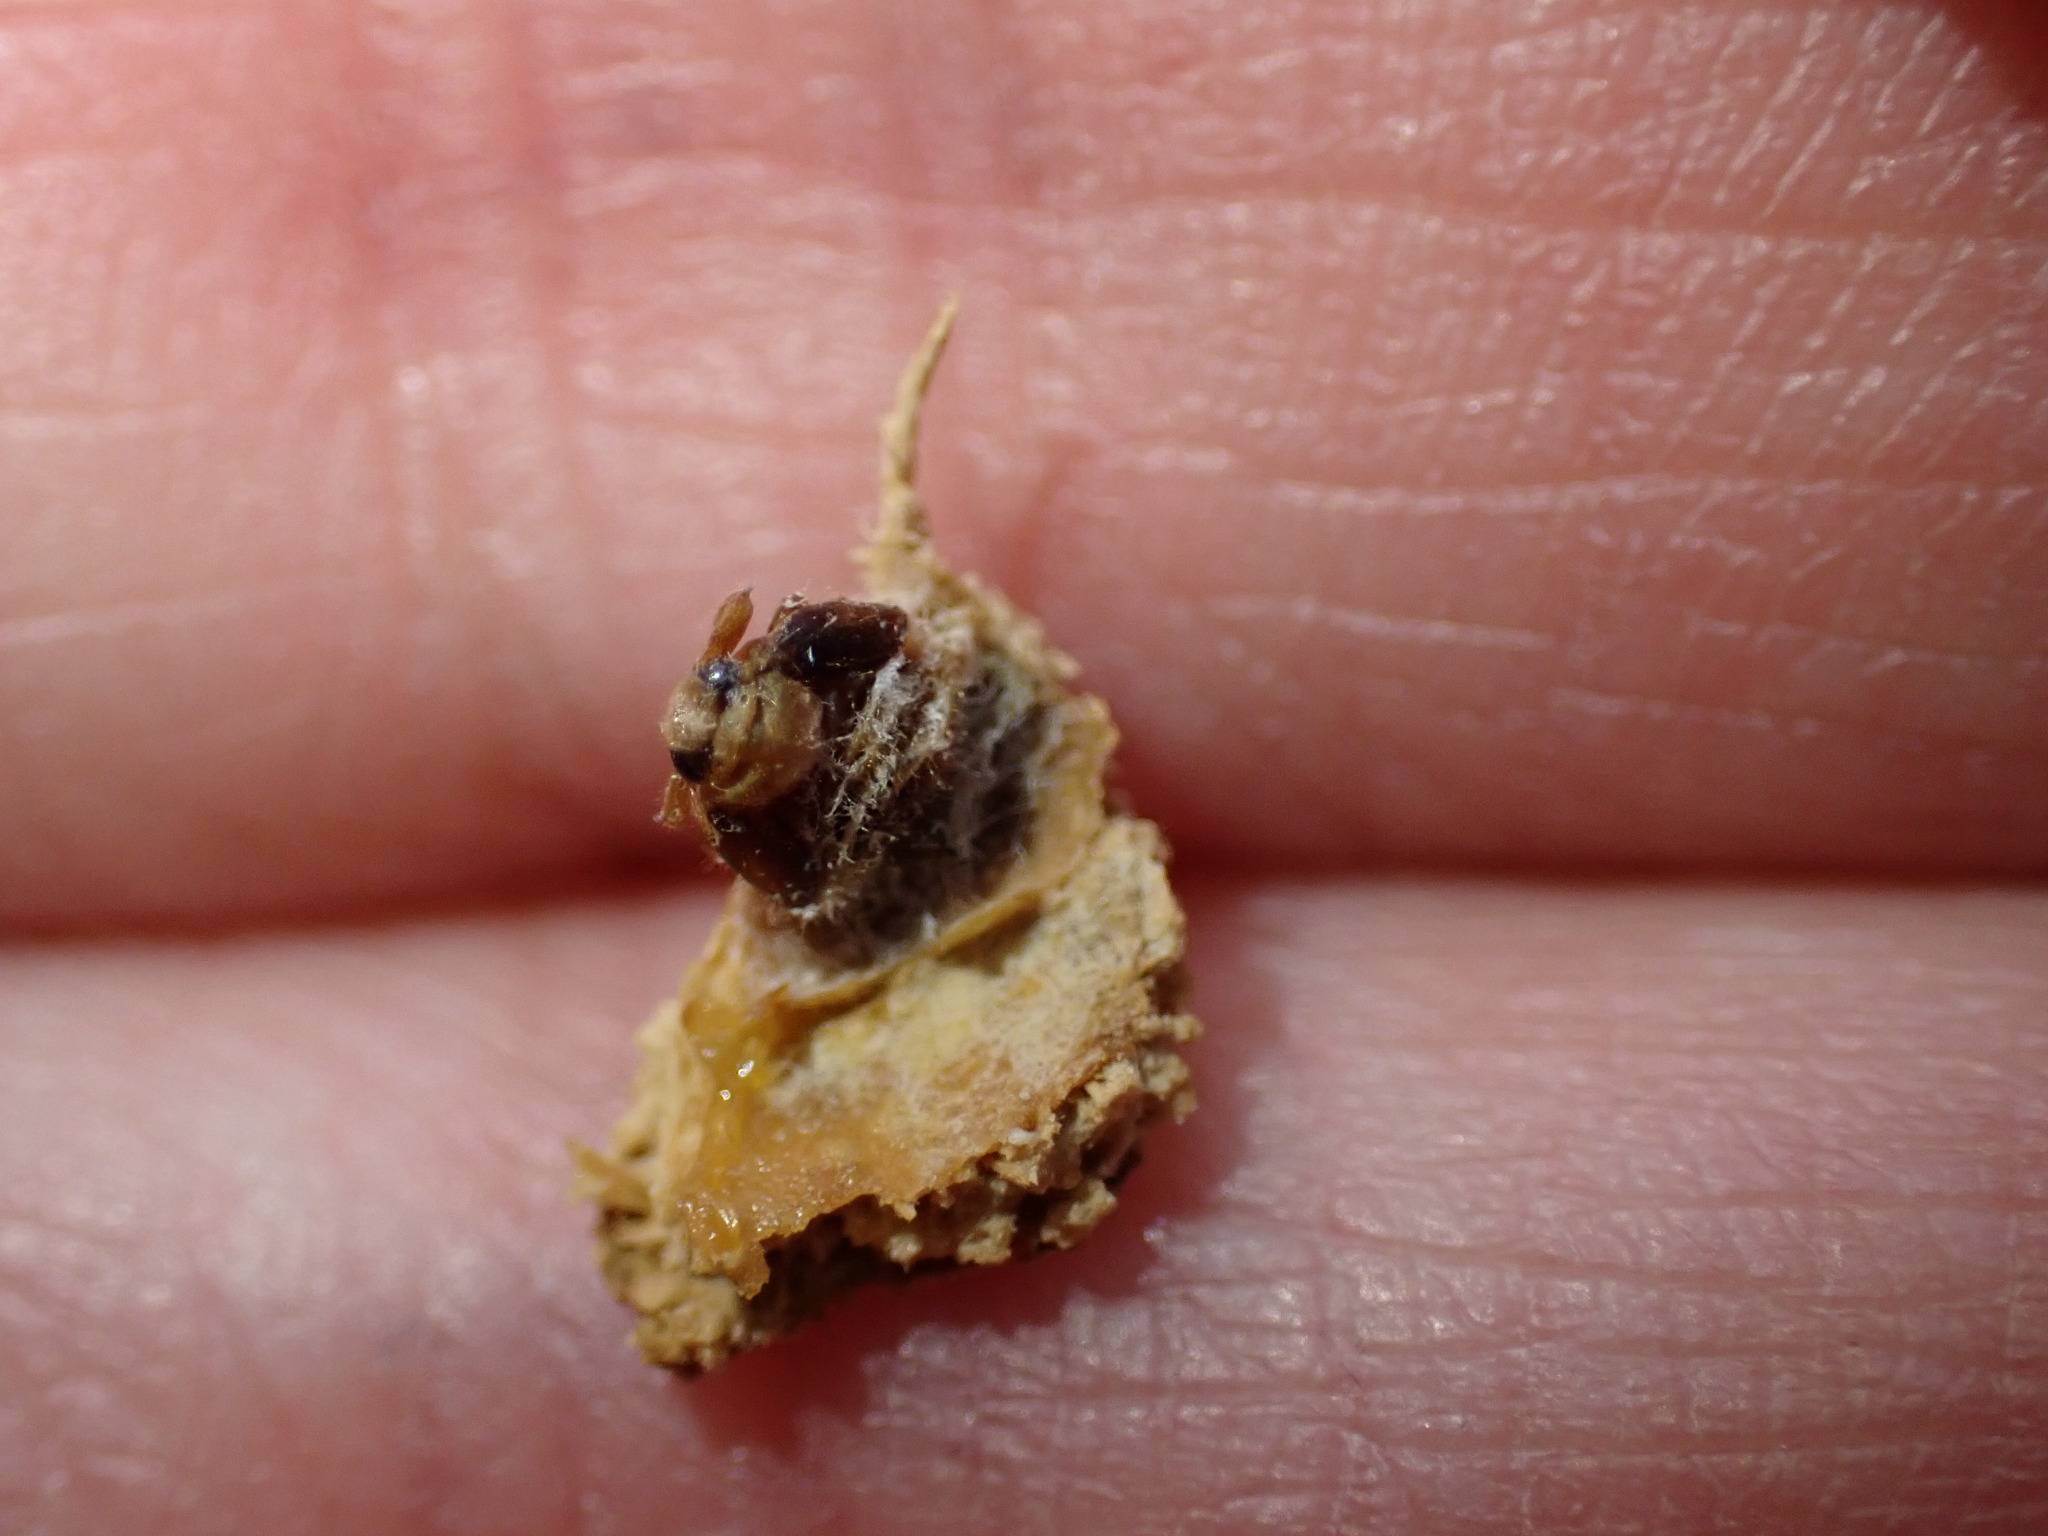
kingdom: Animalia
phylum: Arthropoda
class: Insecta
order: Hemiptera
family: Aphalaridae
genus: Pachypsylla
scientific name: Pachypsylla venusta
